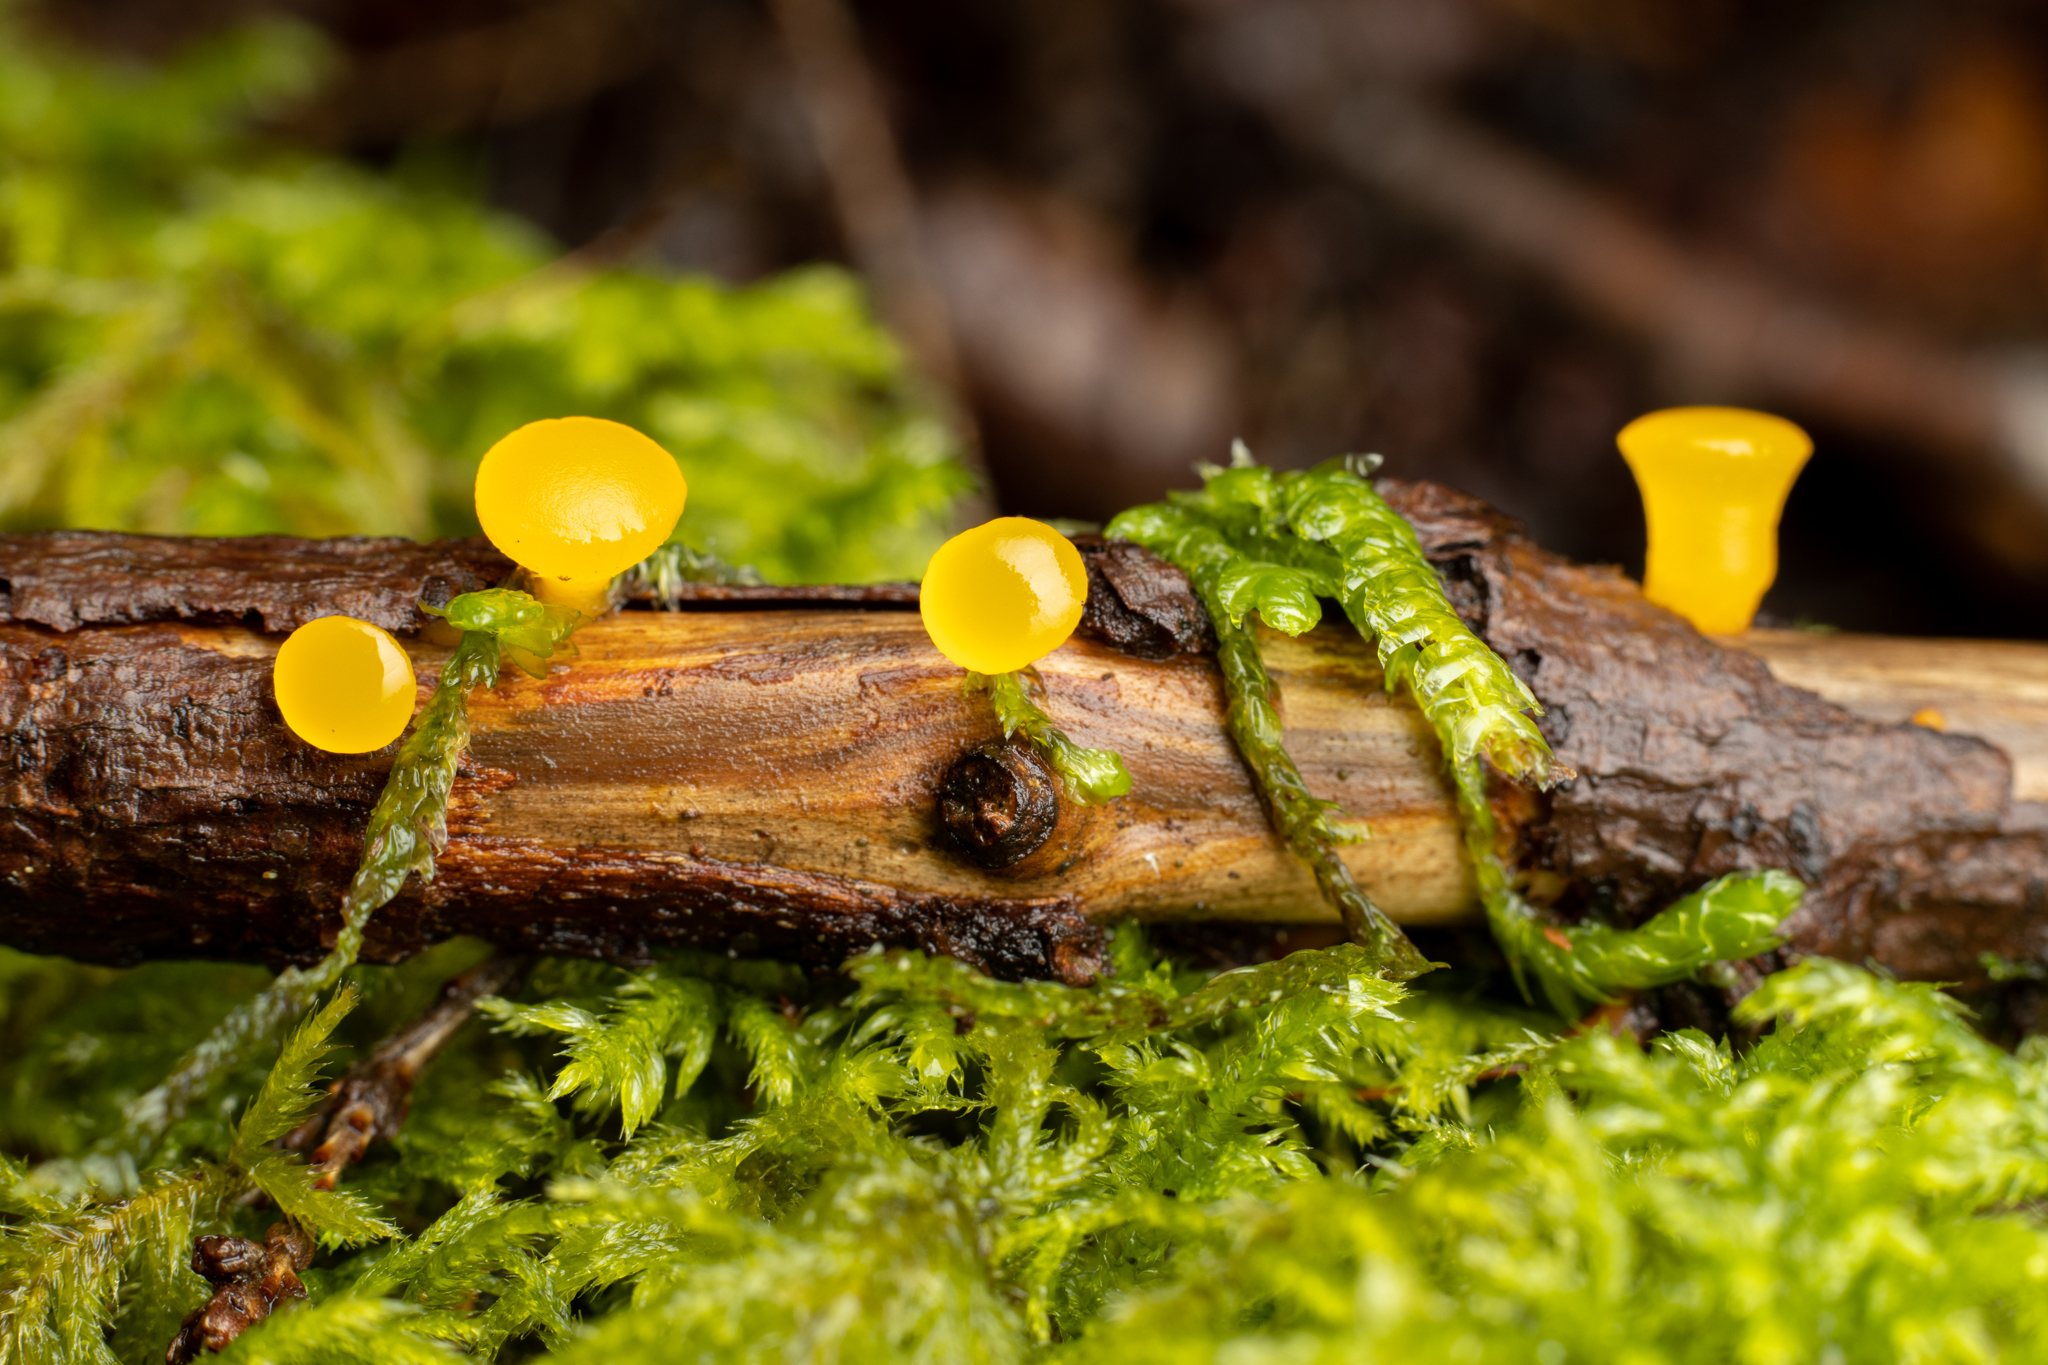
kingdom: Fungi
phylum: Basidiomycota
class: Dacrymycetes
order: Dacrymycetales
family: Dacrymycetaceae
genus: Guepiniopsis
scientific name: Guepiniopsis alpina
